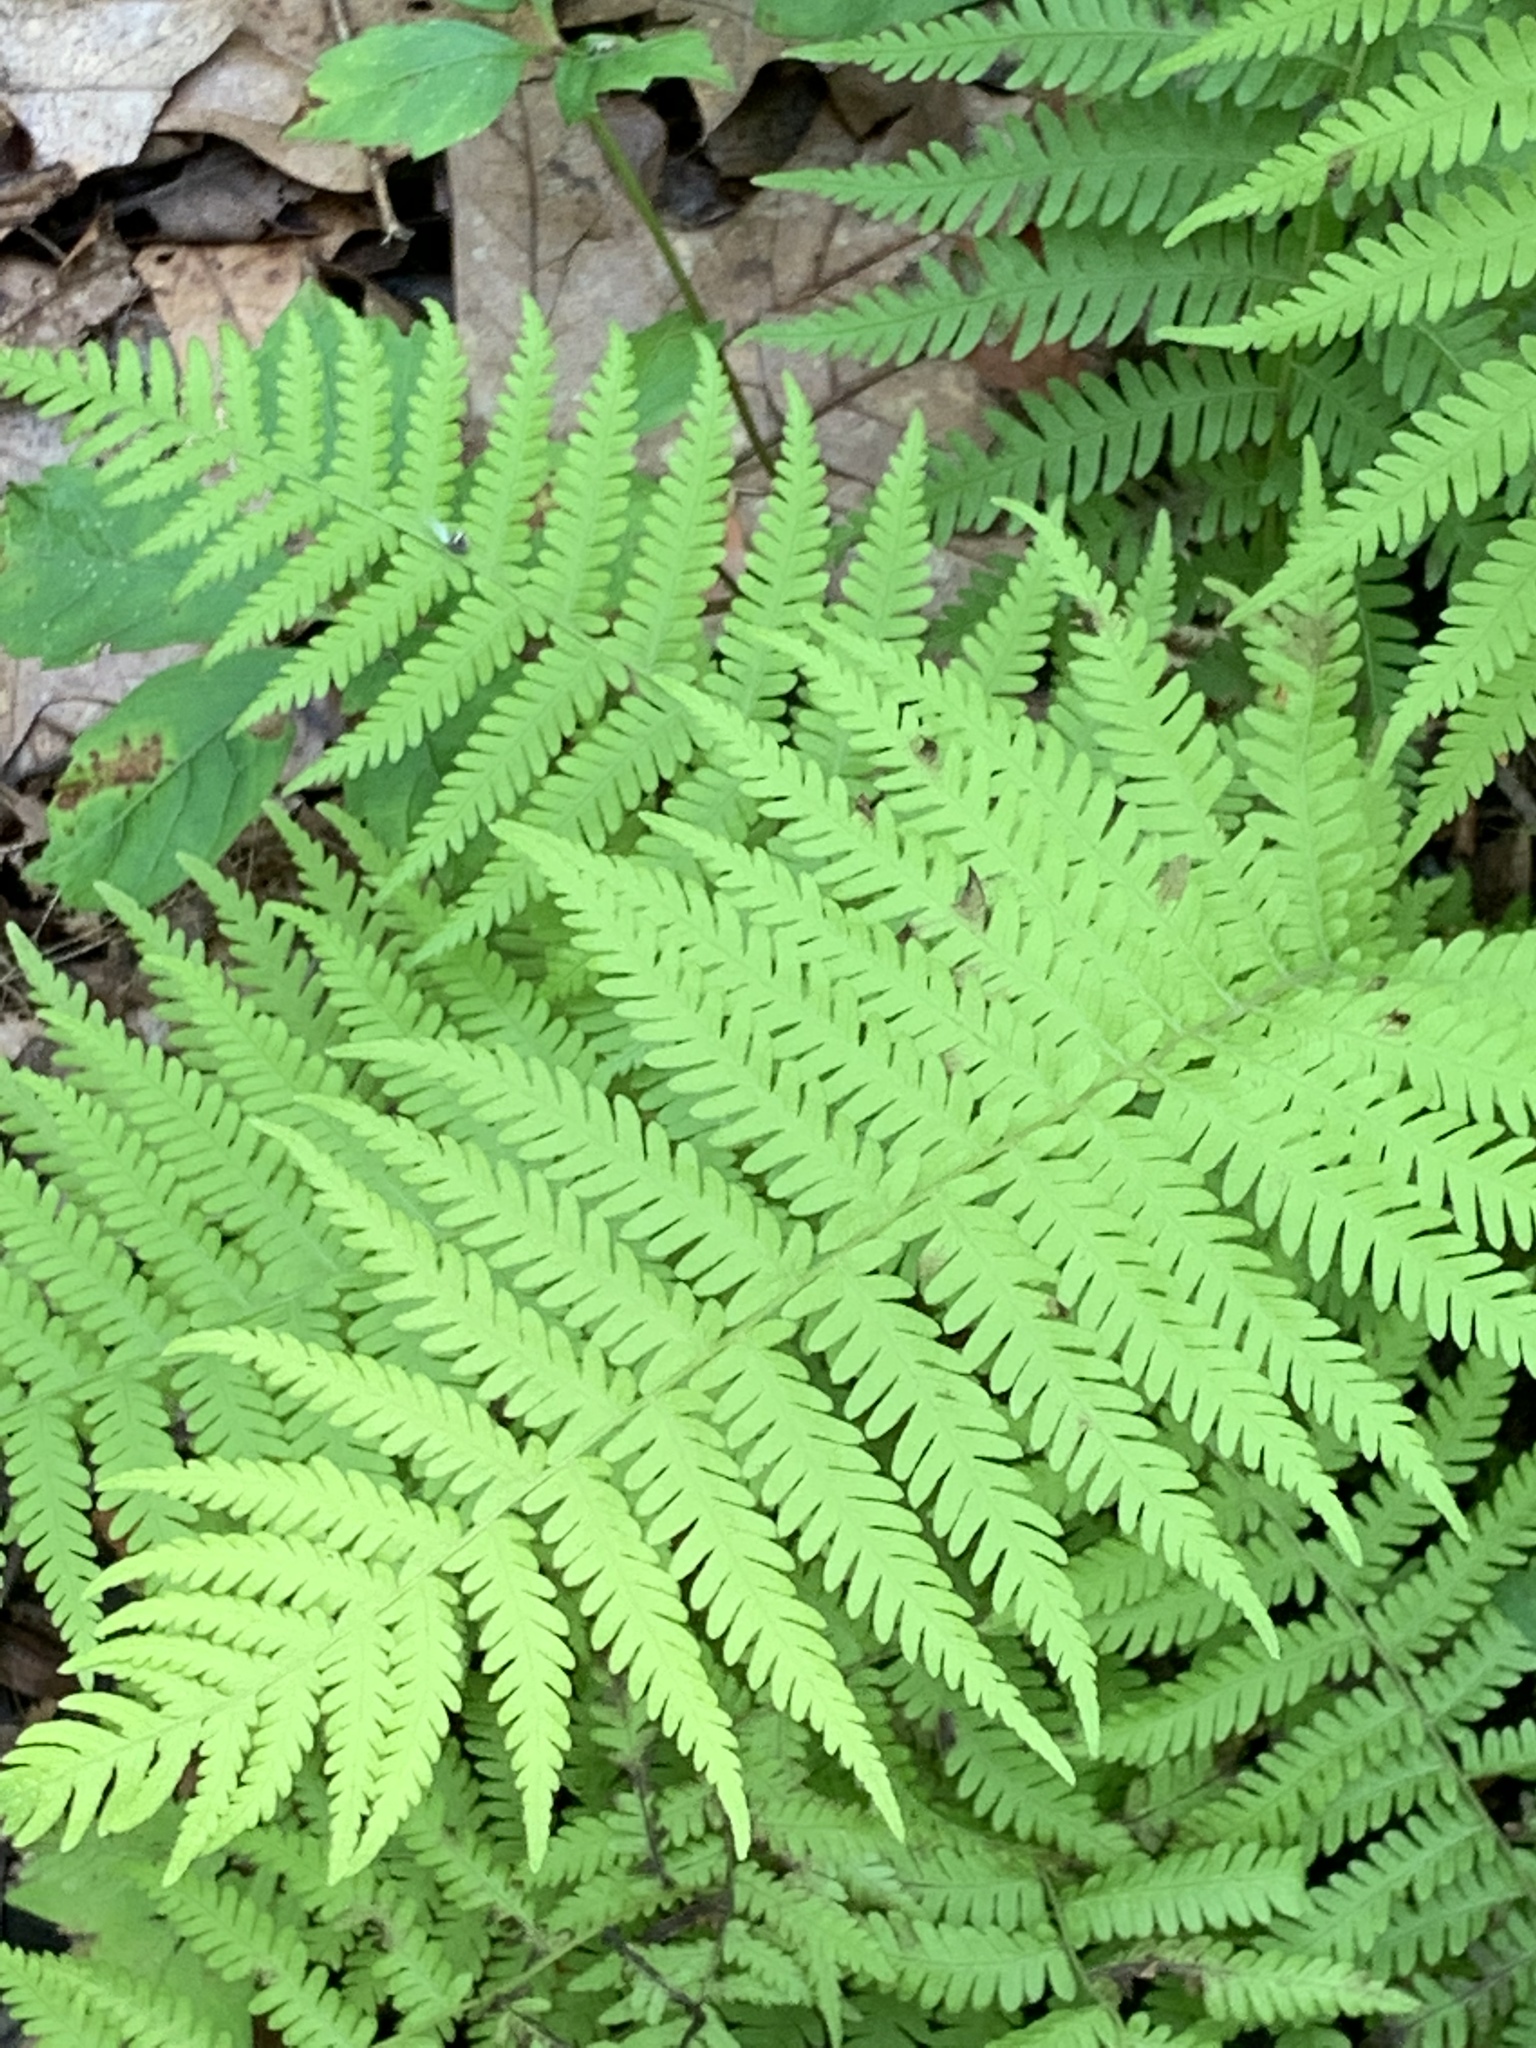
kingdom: Plantae
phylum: Tracheophyta
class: Polypodiopsida
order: Polypodiales
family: Thelypteridaceae
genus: Amauropelta
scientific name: Amauropelta noveboracensis
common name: New york fern
